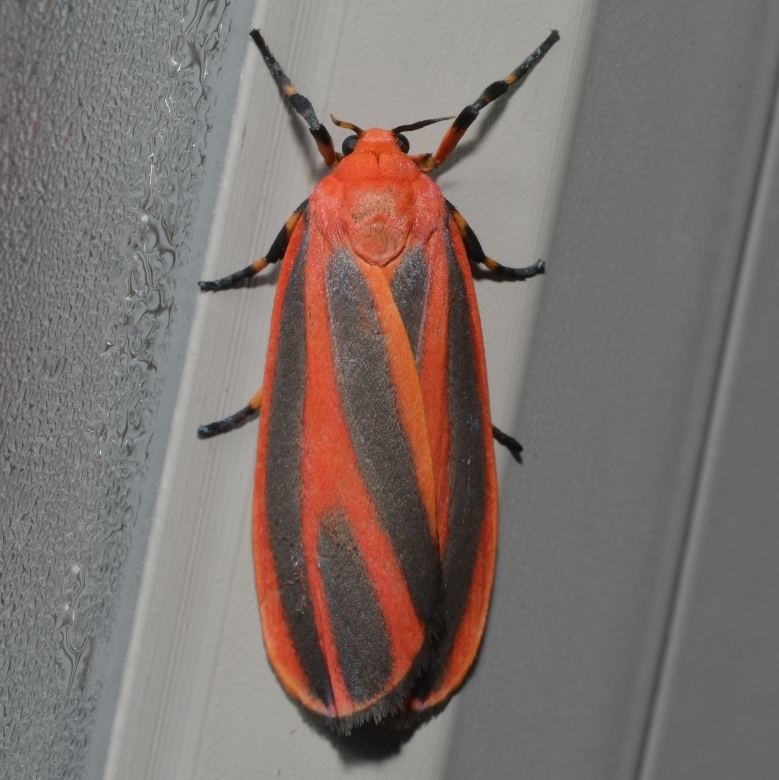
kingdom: Animalia
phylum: Arthropoda
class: Insecta
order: Lepidoptera
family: Erebidae
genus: Hypoprepia
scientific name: Hypoprepia miniata
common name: Scarlet-winged lichen moth
